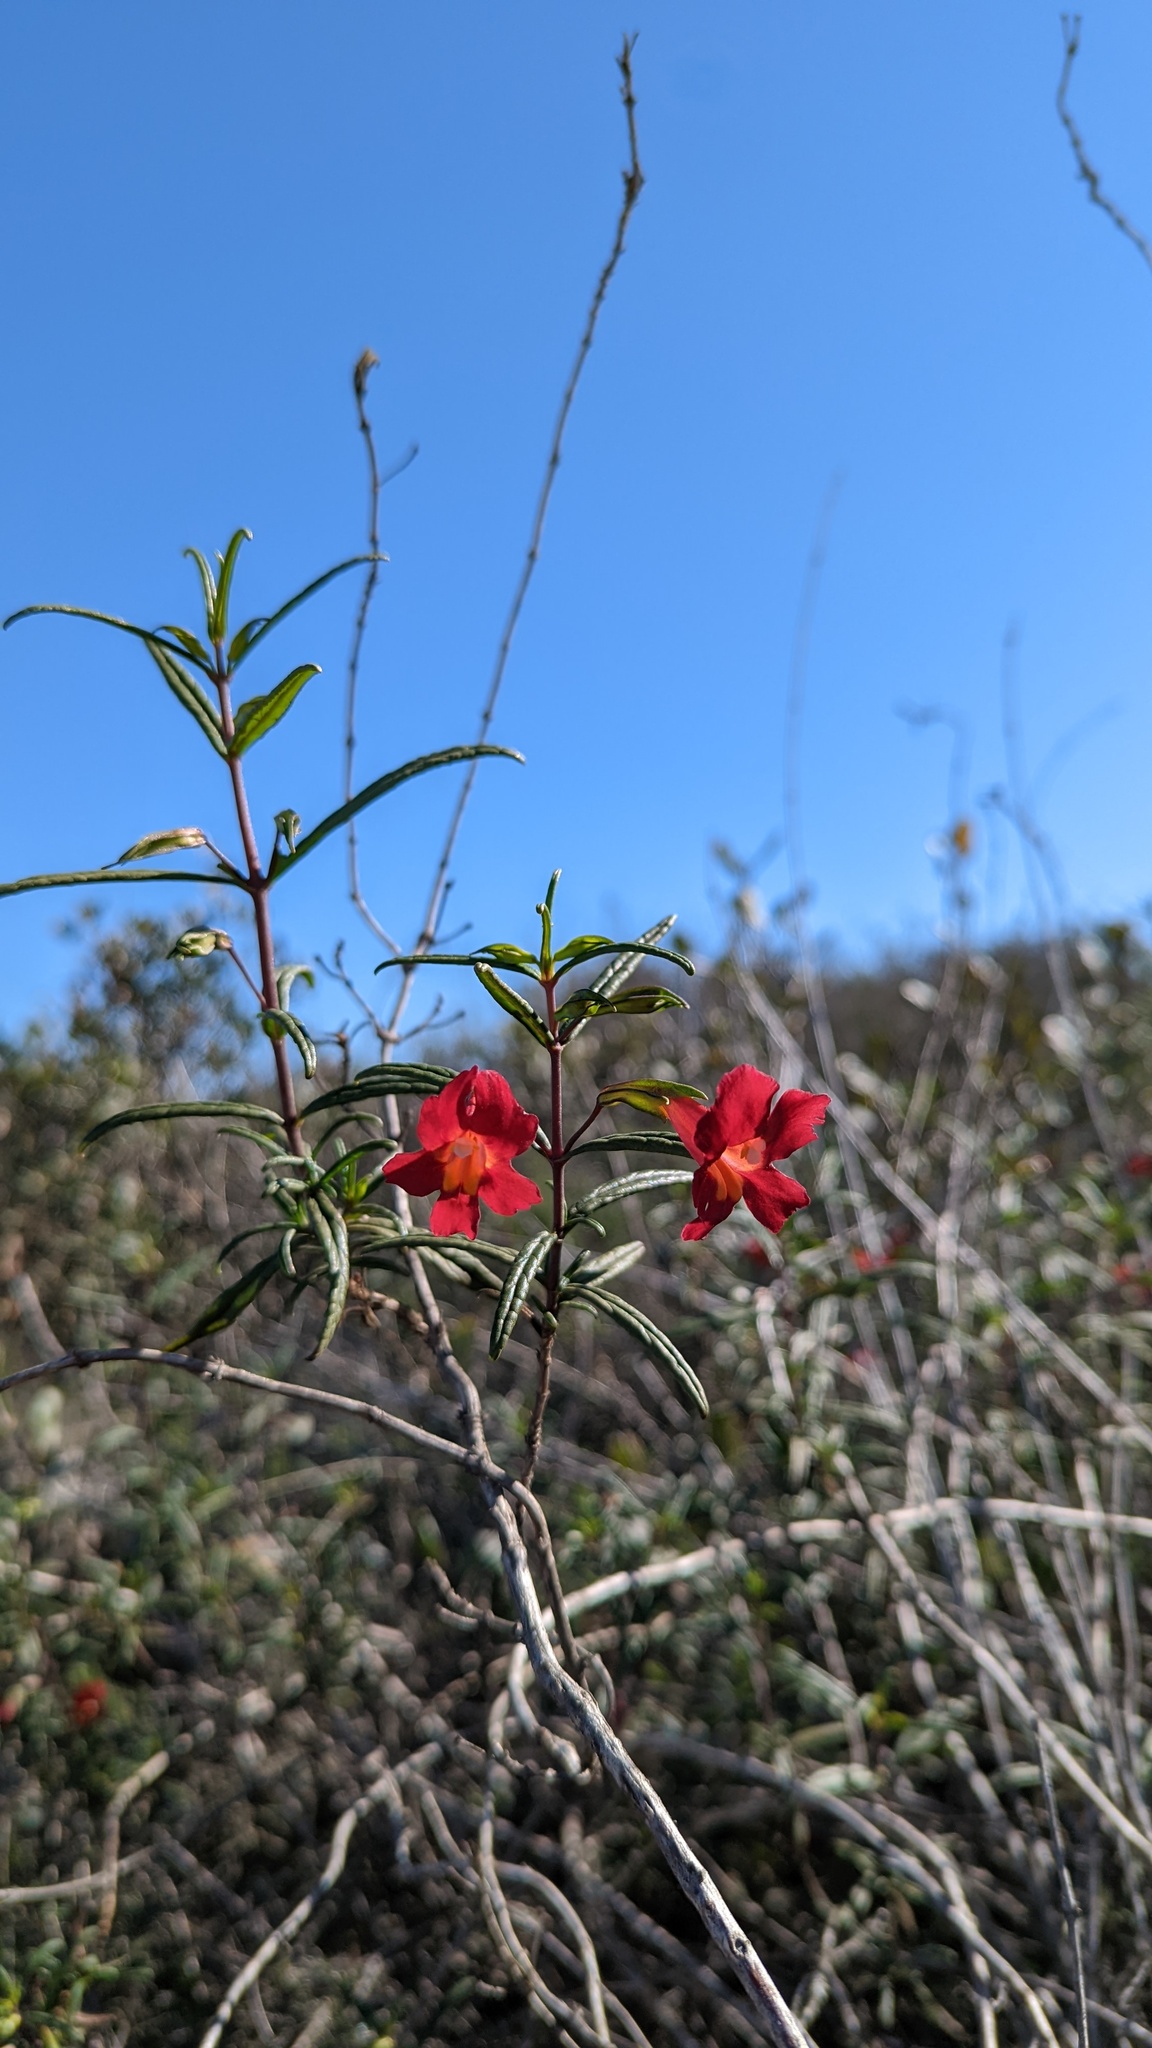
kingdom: Plantae
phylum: Tracheophyta
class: Magnoliopsida
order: Lamiales
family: Phrymaceae
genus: Diplacus
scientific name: Diplacus puniceus
